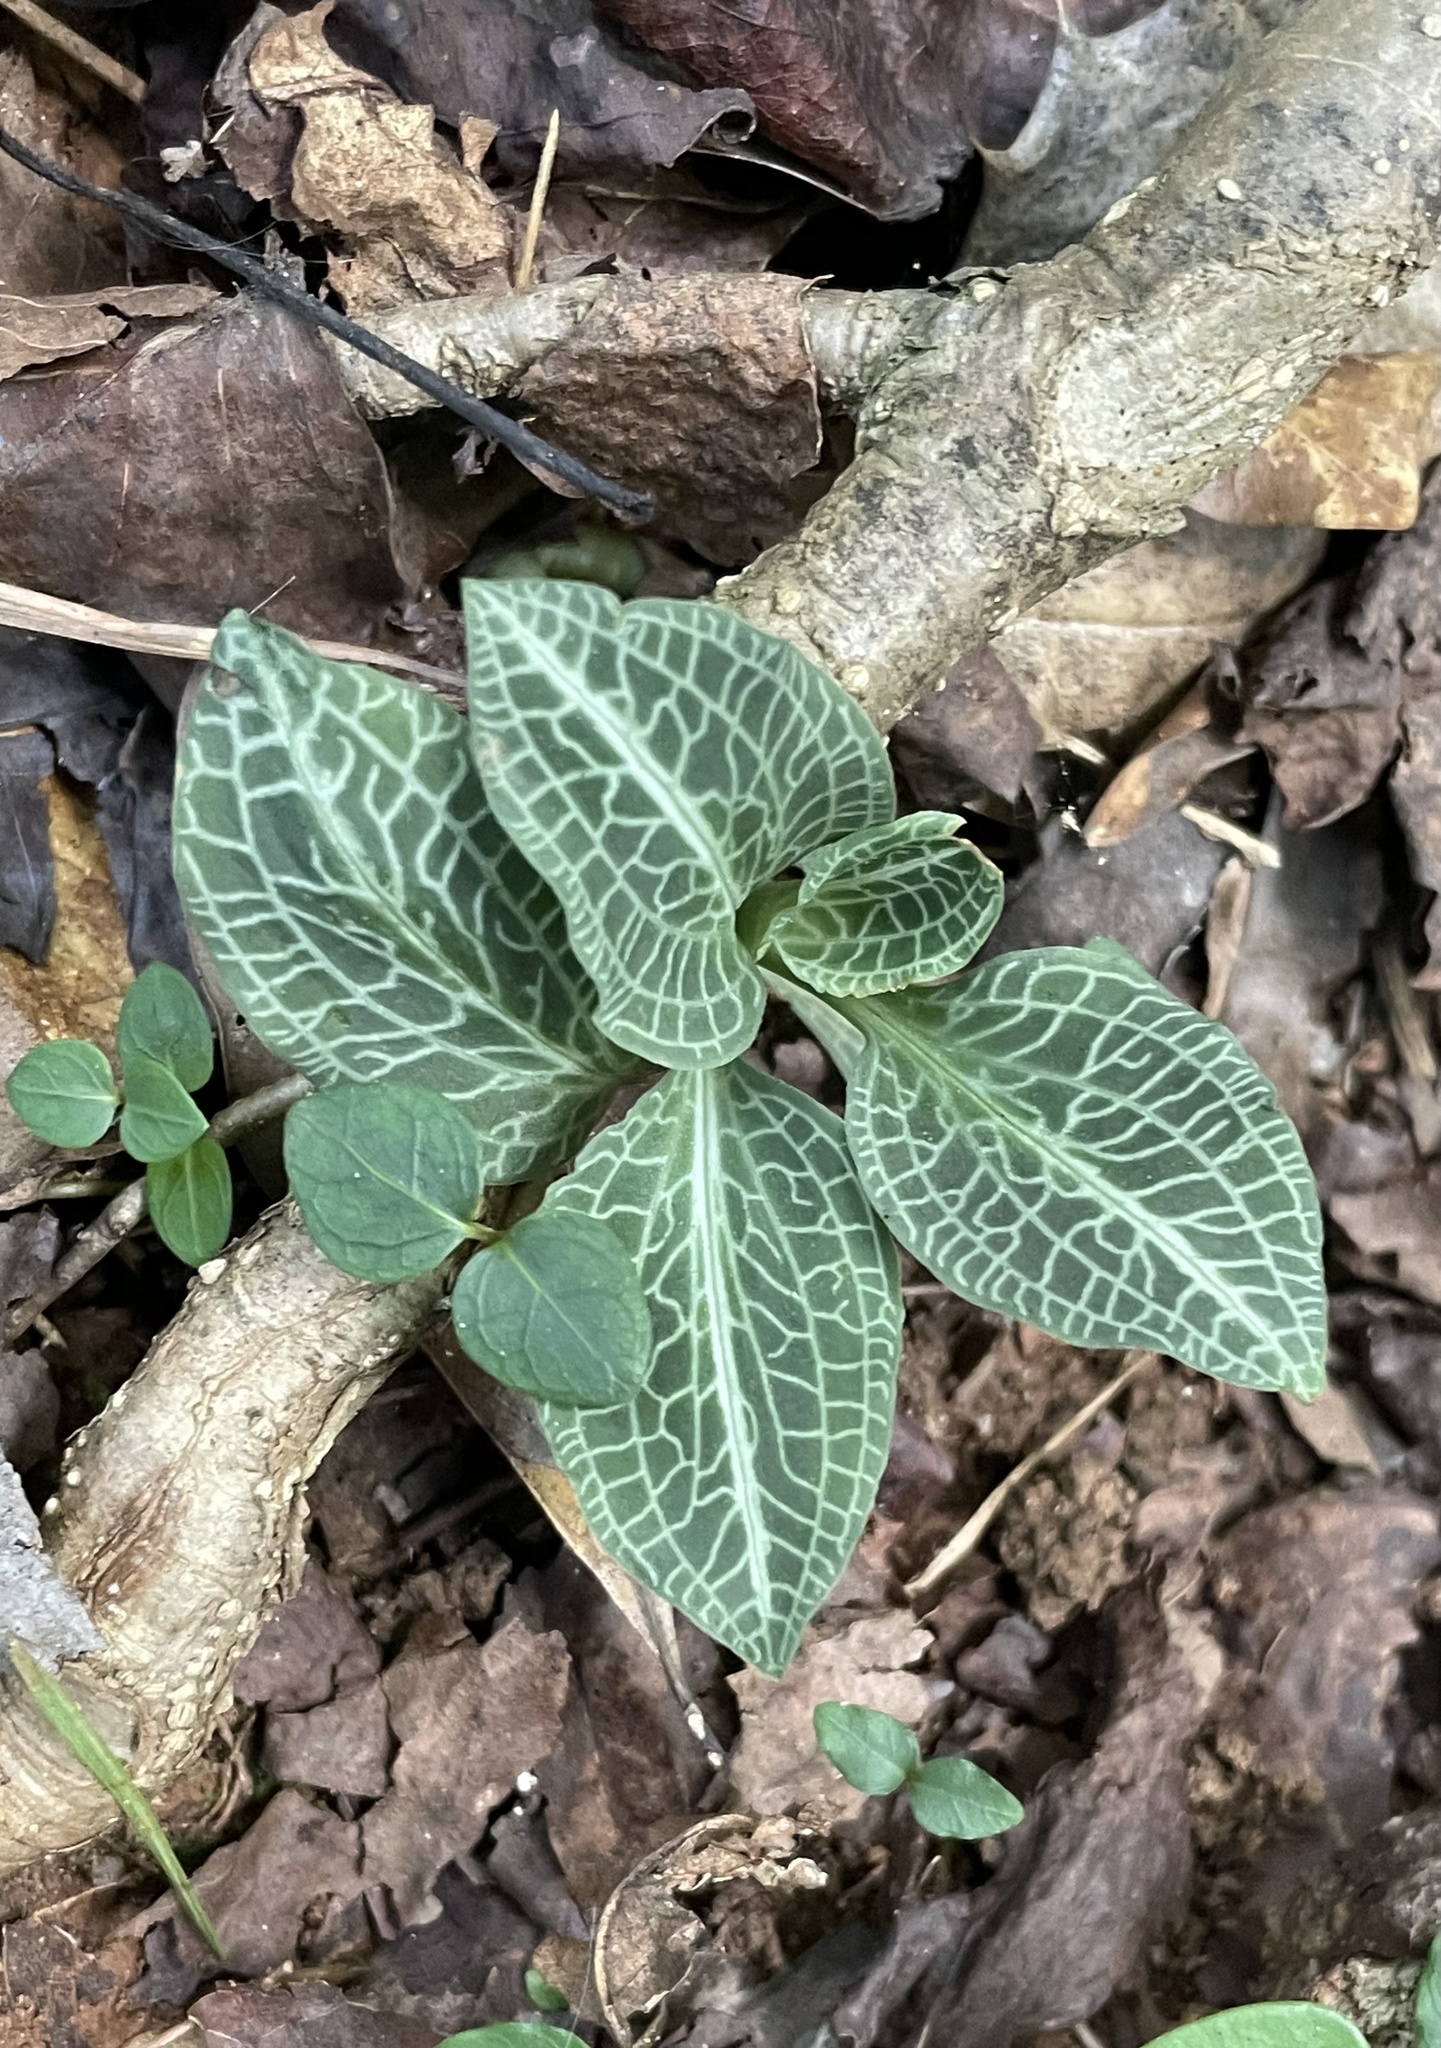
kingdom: Plantae
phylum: Tracheophyta
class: Liliopsida
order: Asparagales
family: Orchidaceae
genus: Goodyera
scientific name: Goodyera pubescens
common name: Downy rattlesnake-plantain
